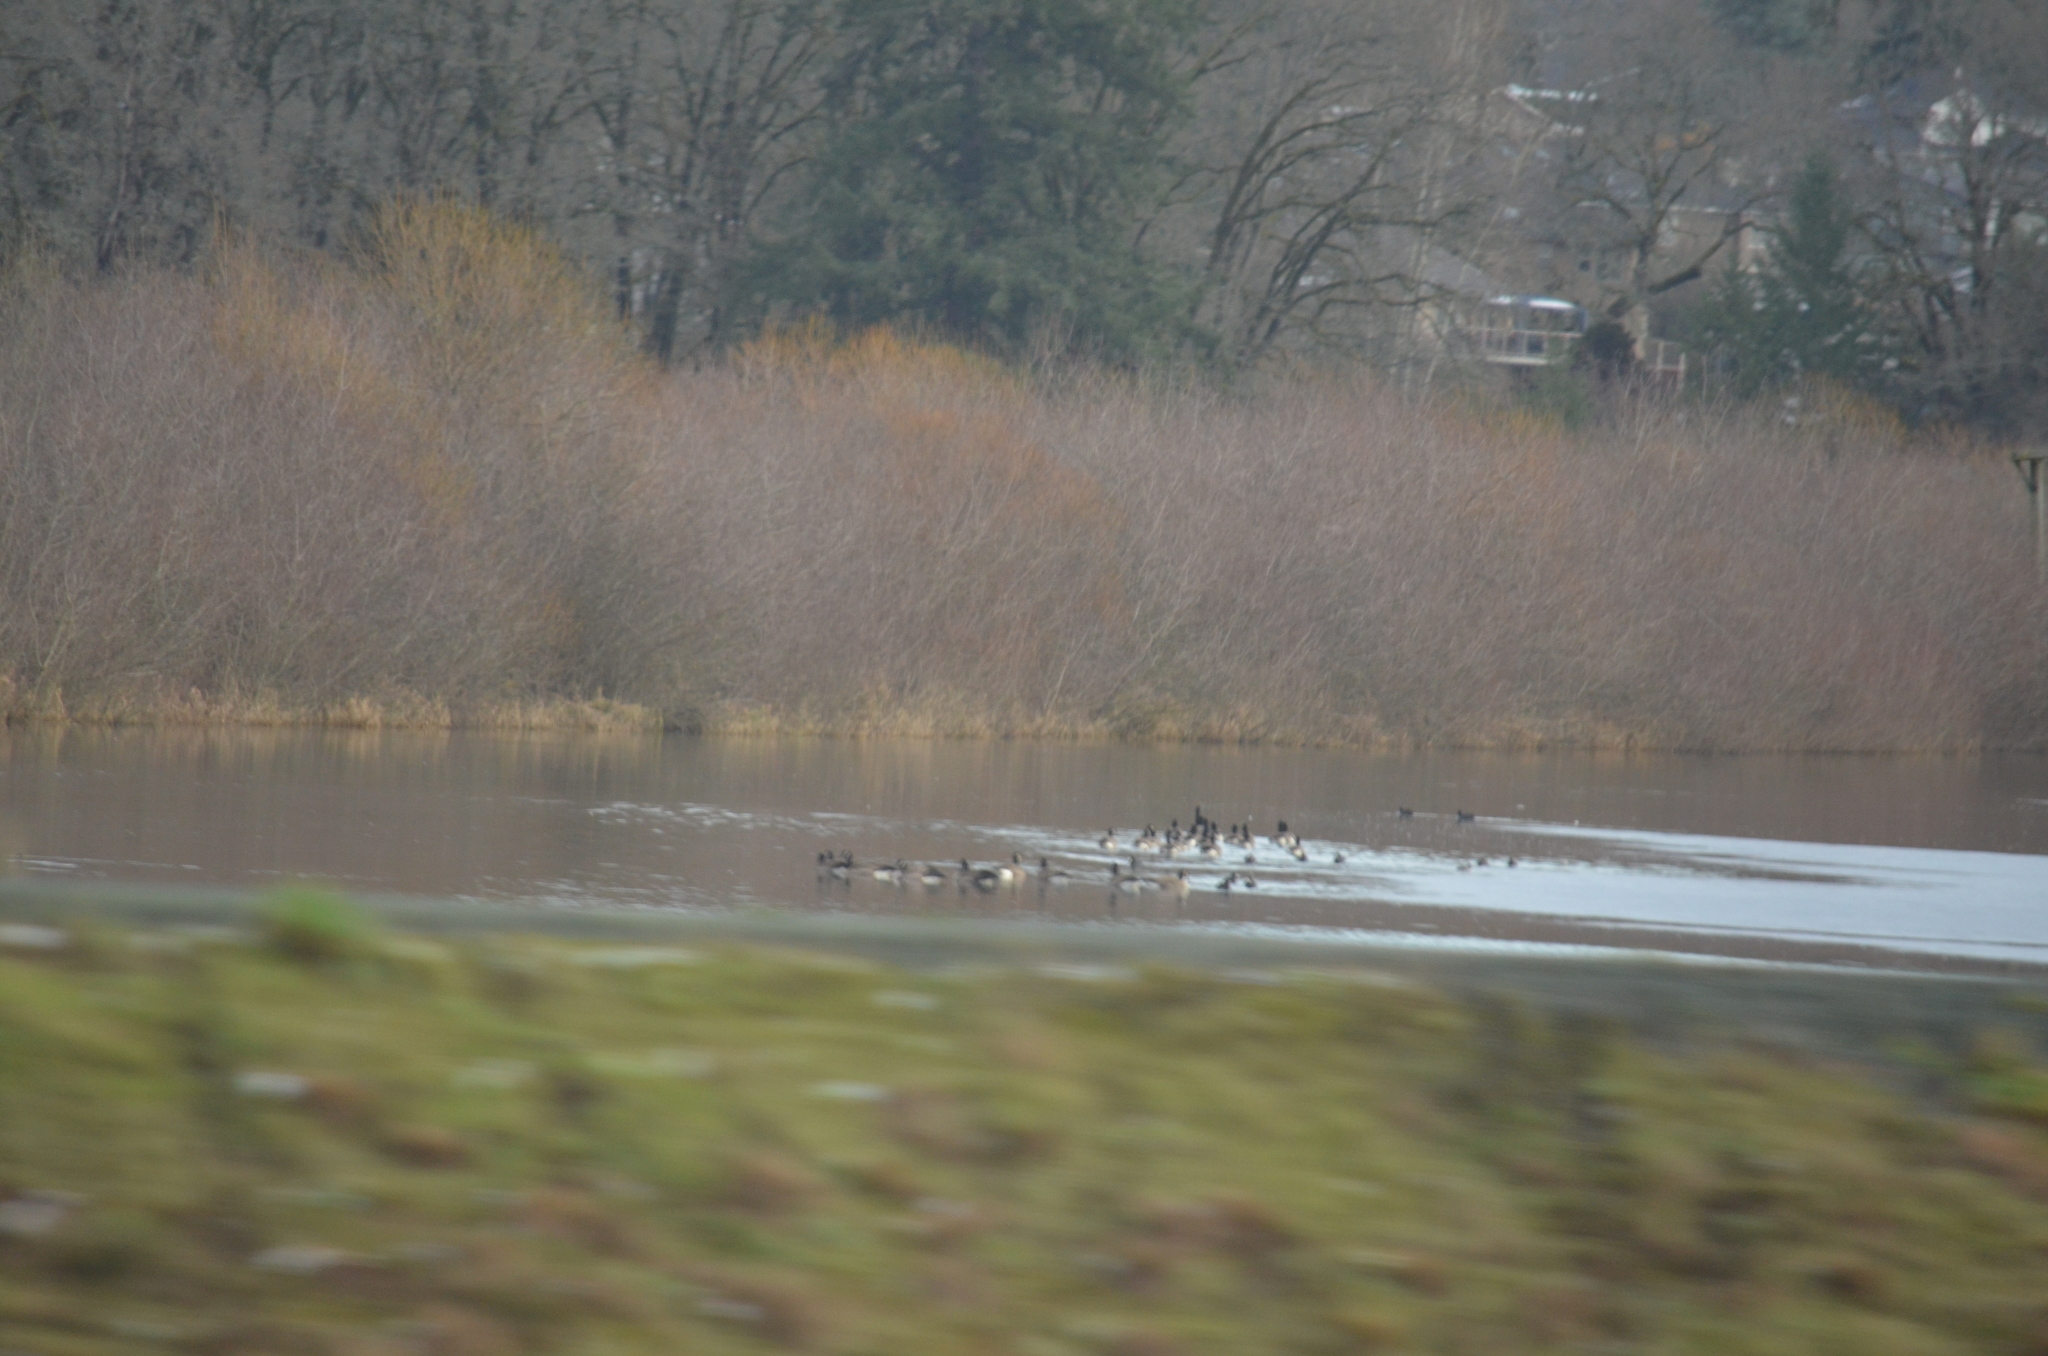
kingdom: Animalia
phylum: Chordata
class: Aves
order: Anseriformes
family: Anatidae
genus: Branta
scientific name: Branta canadensis
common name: Canada goose
